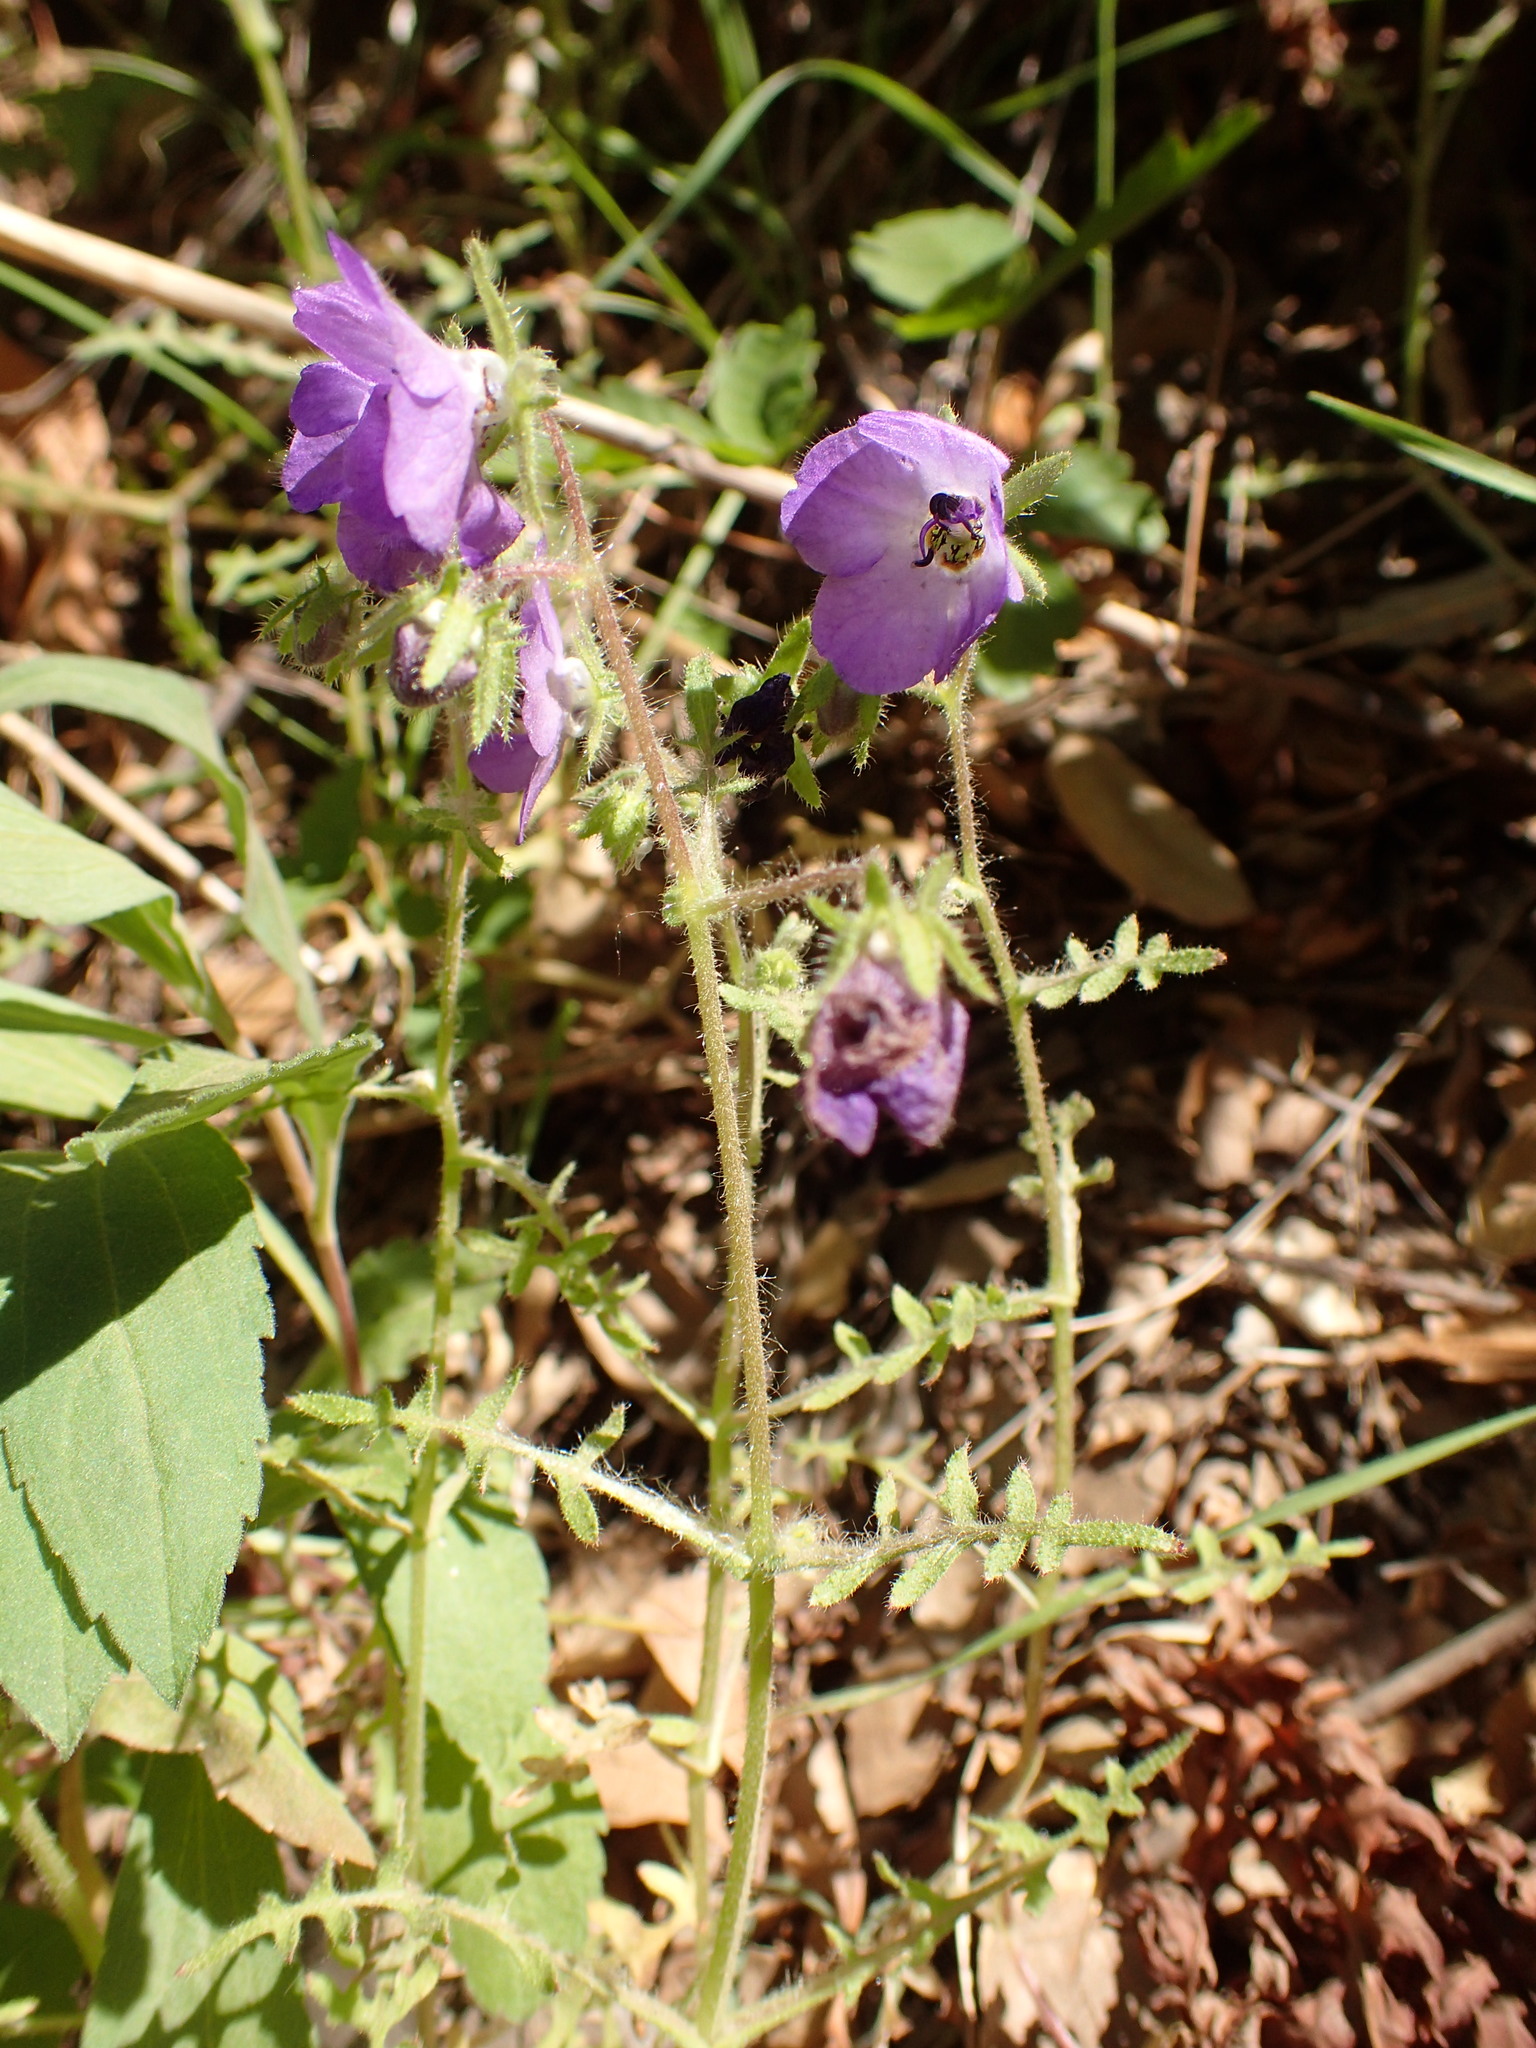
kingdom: Plantae
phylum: Tracheophyta
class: Magnoliopsida
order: Boraginales
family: Hydrophyllaceae
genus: Pholistoma
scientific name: Pholistoma auritum
